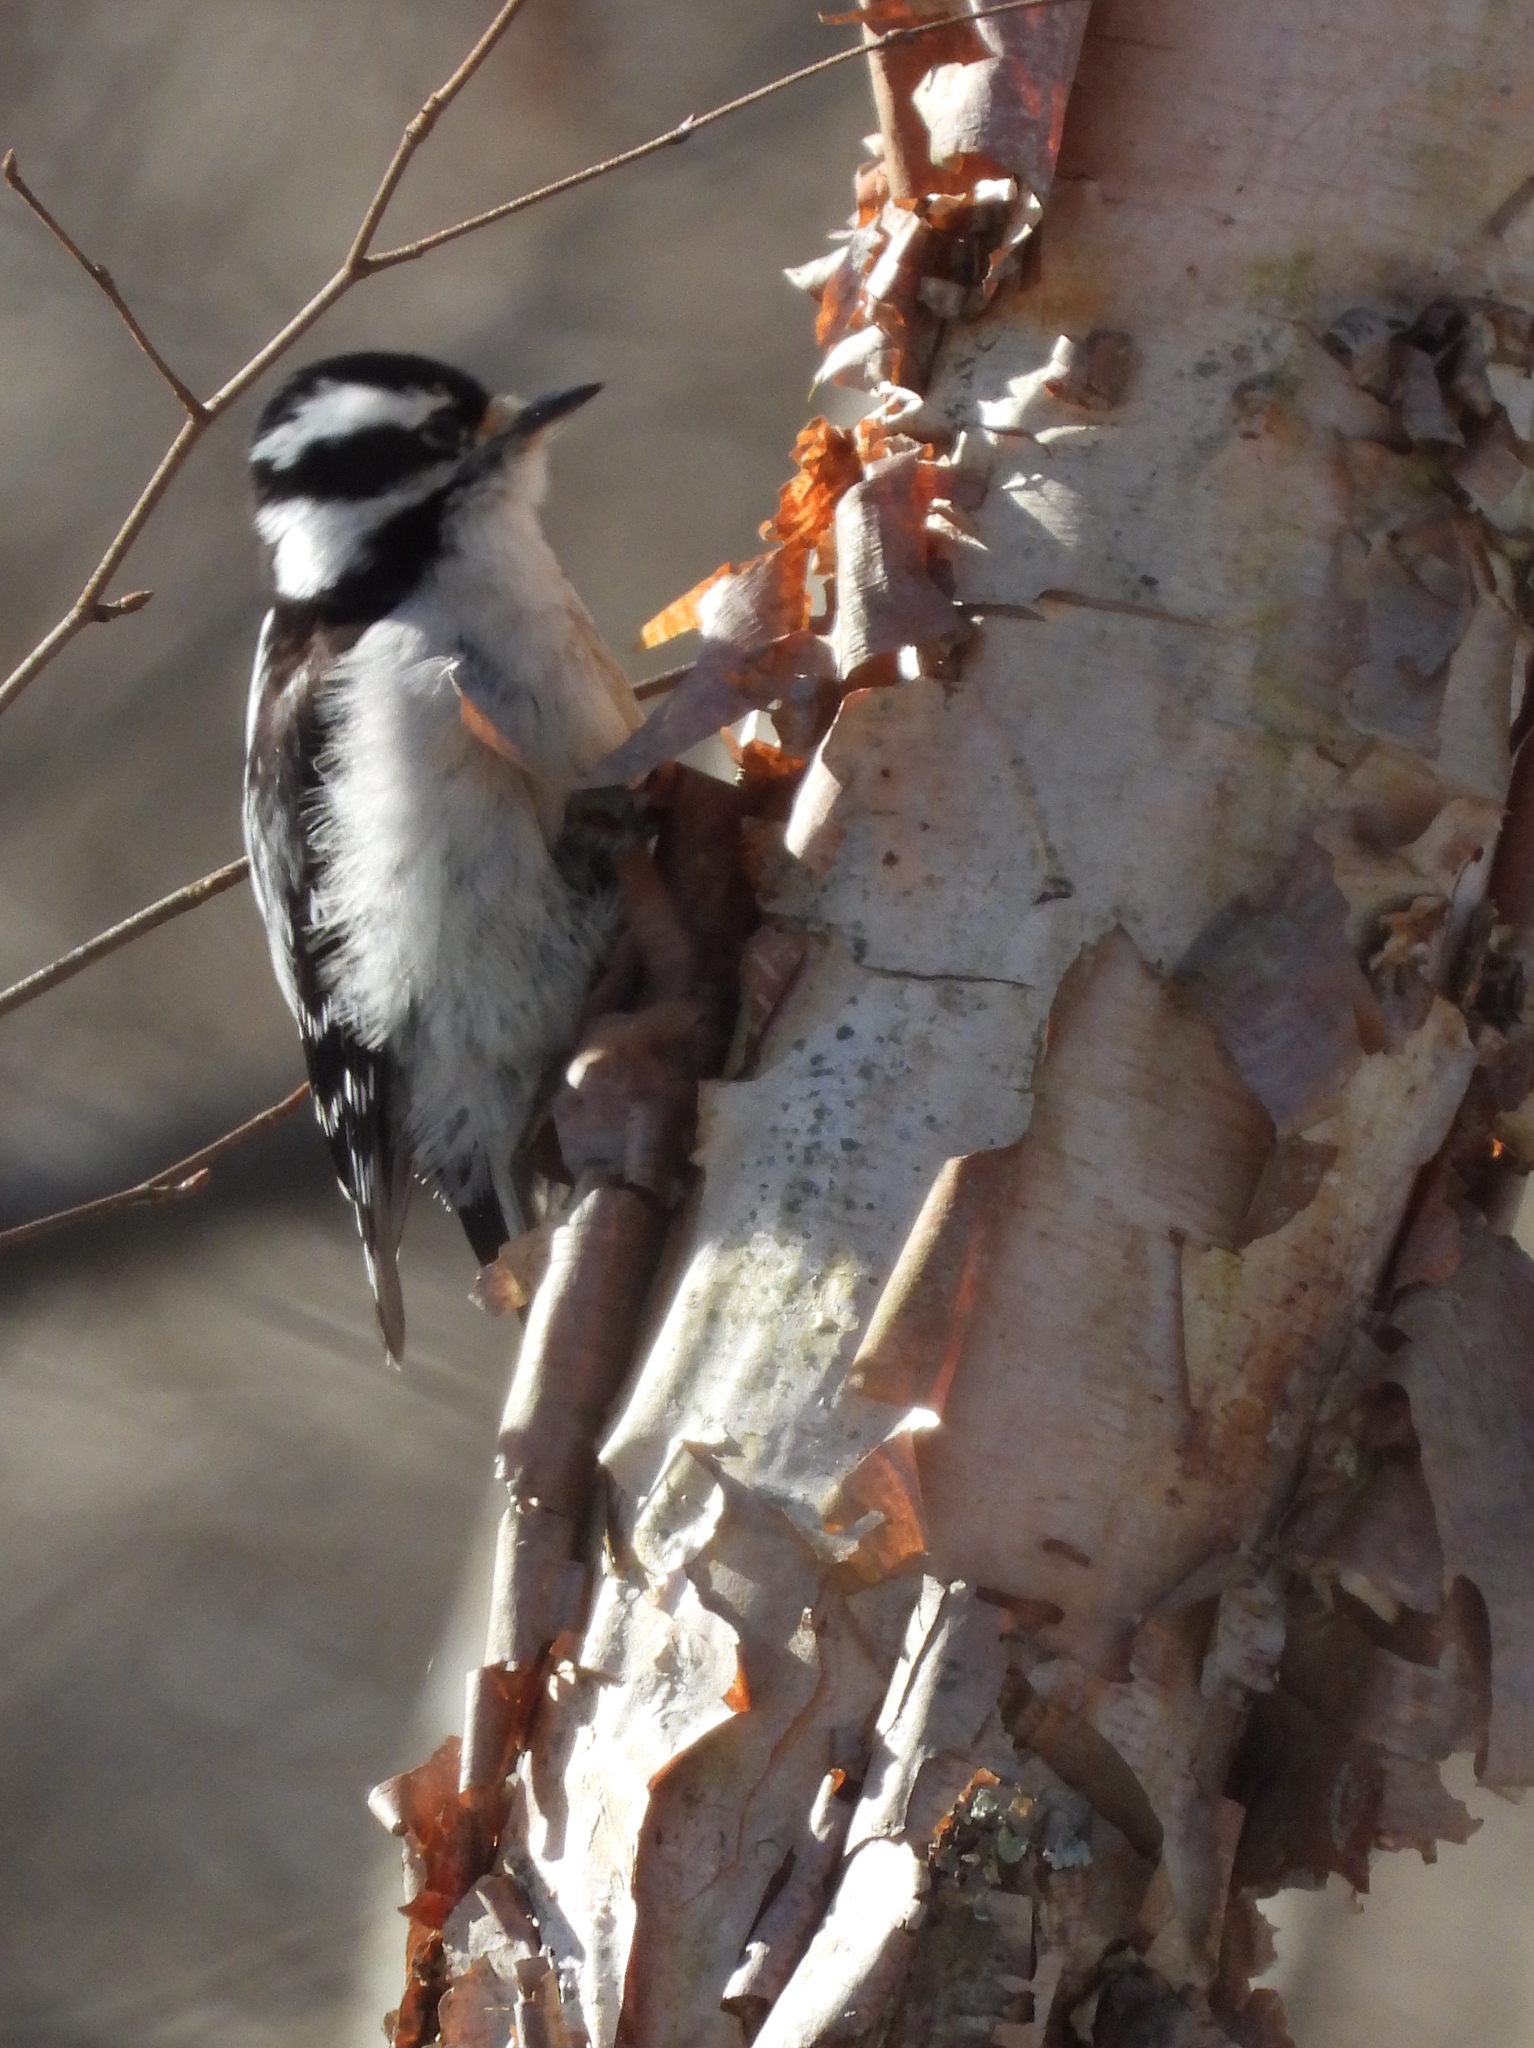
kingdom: Animalia
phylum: Chordata
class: Aves
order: Piciformes
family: Picidae
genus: Dryobates
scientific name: Dryobates pubescens
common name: Downy woodpecker
